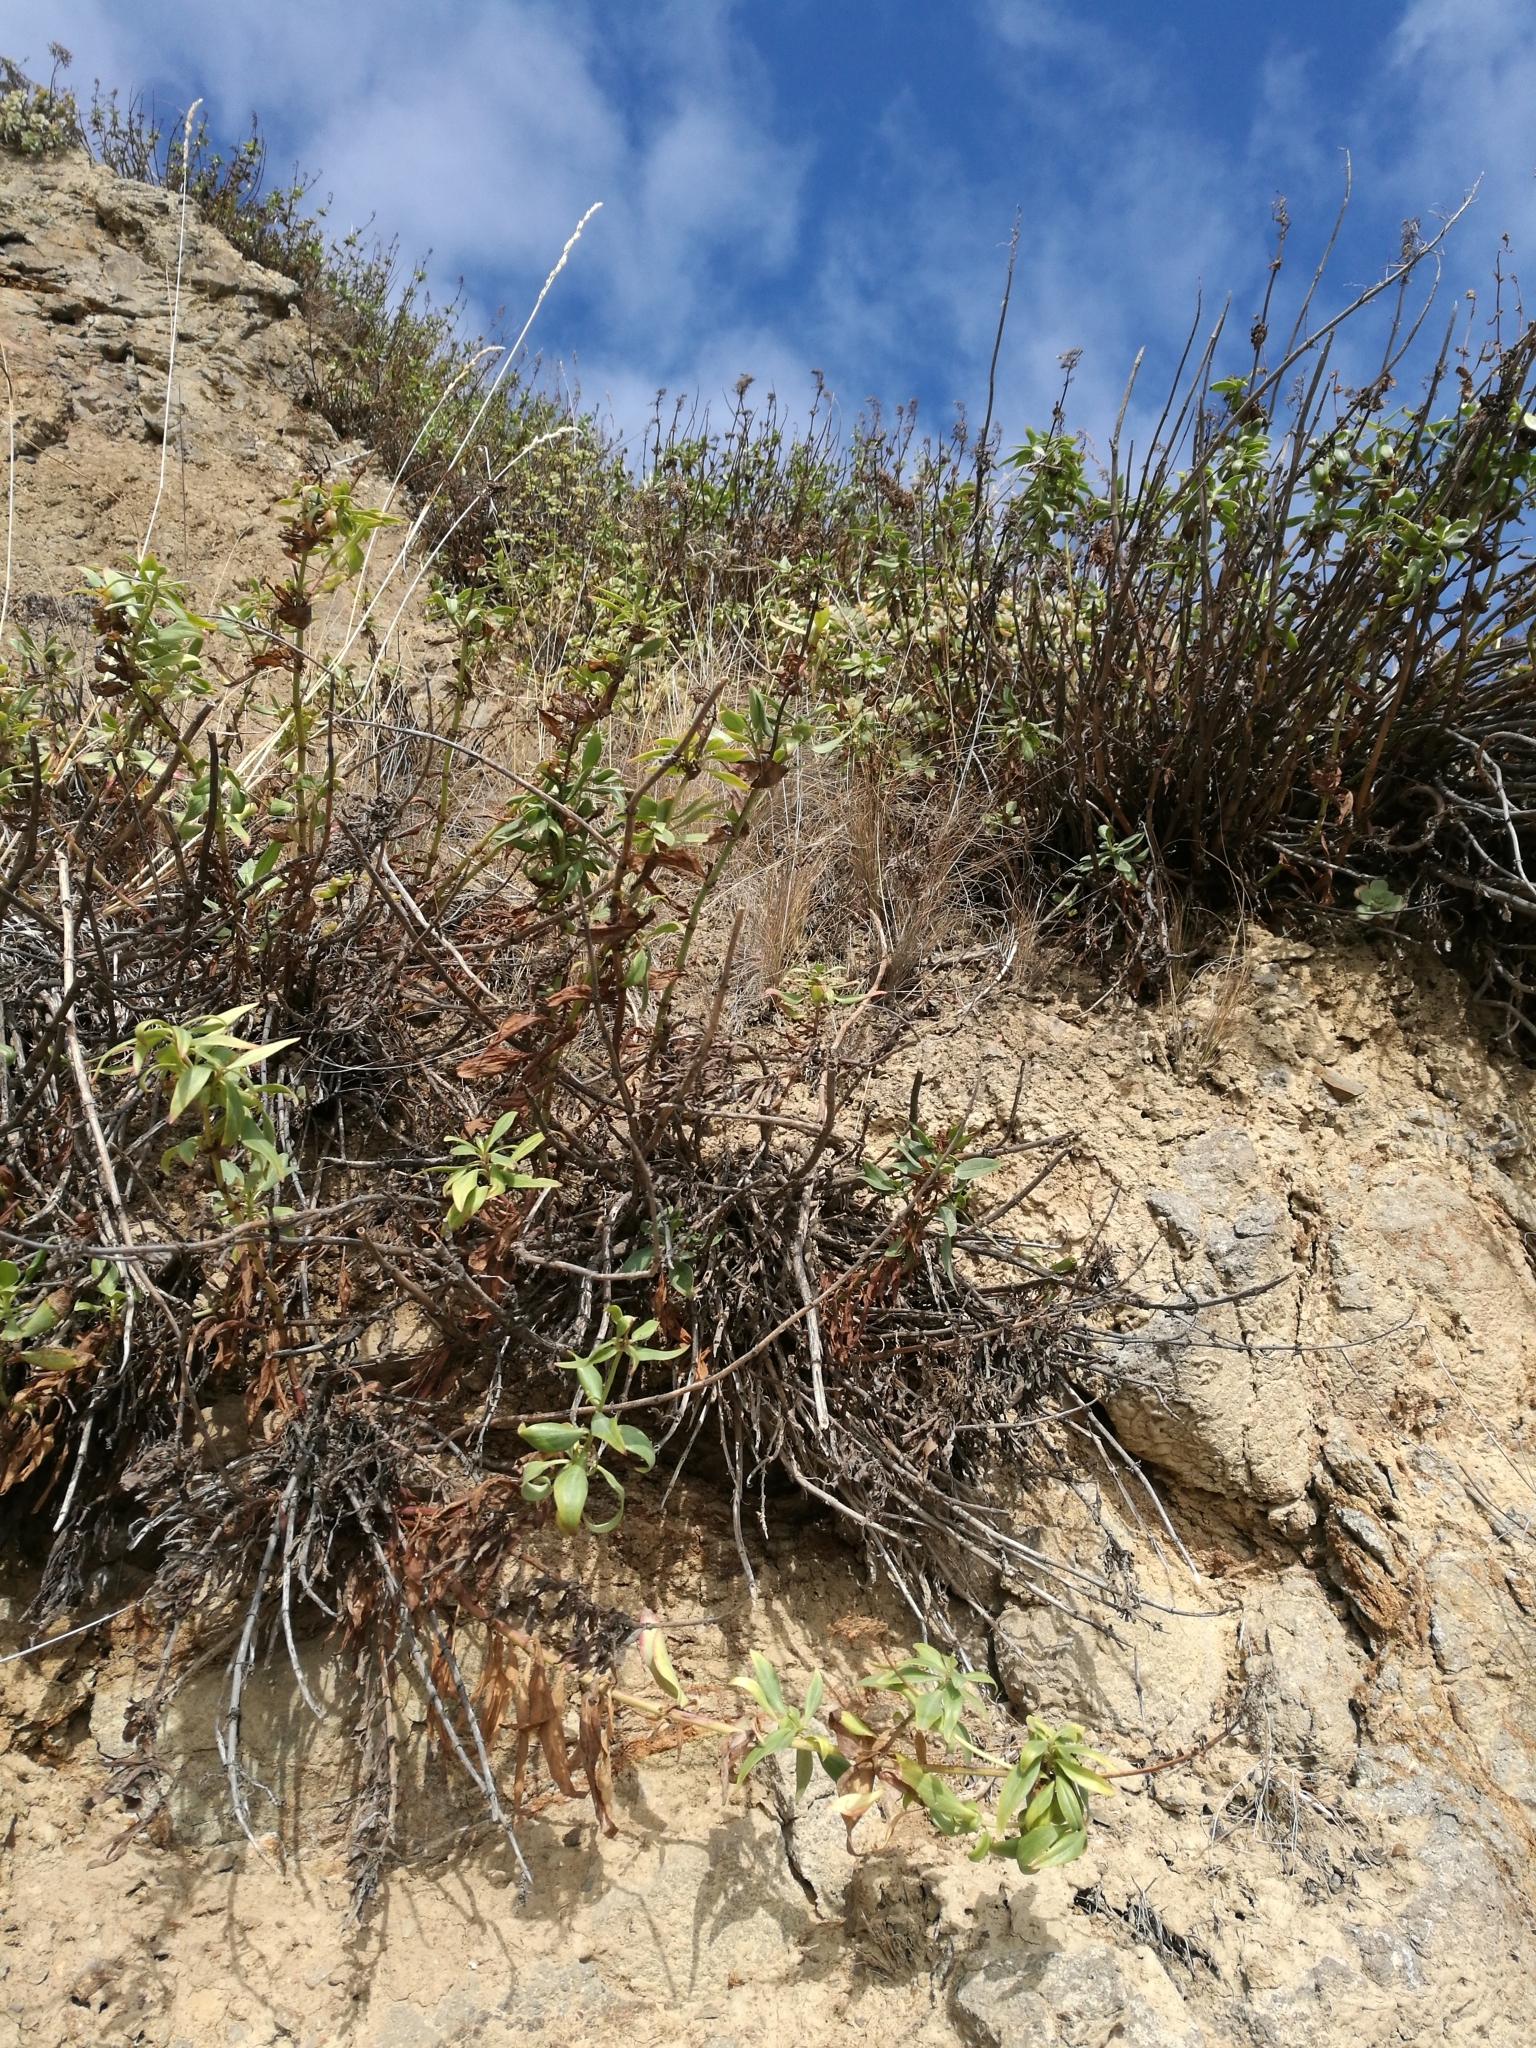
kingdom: Plantae
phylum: Tracheophyta
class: Magnoliopsida
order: Dipsacales
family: Caprifoliaceae
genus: Centranthus
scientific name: Centranthus ruber
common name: Red valerian
